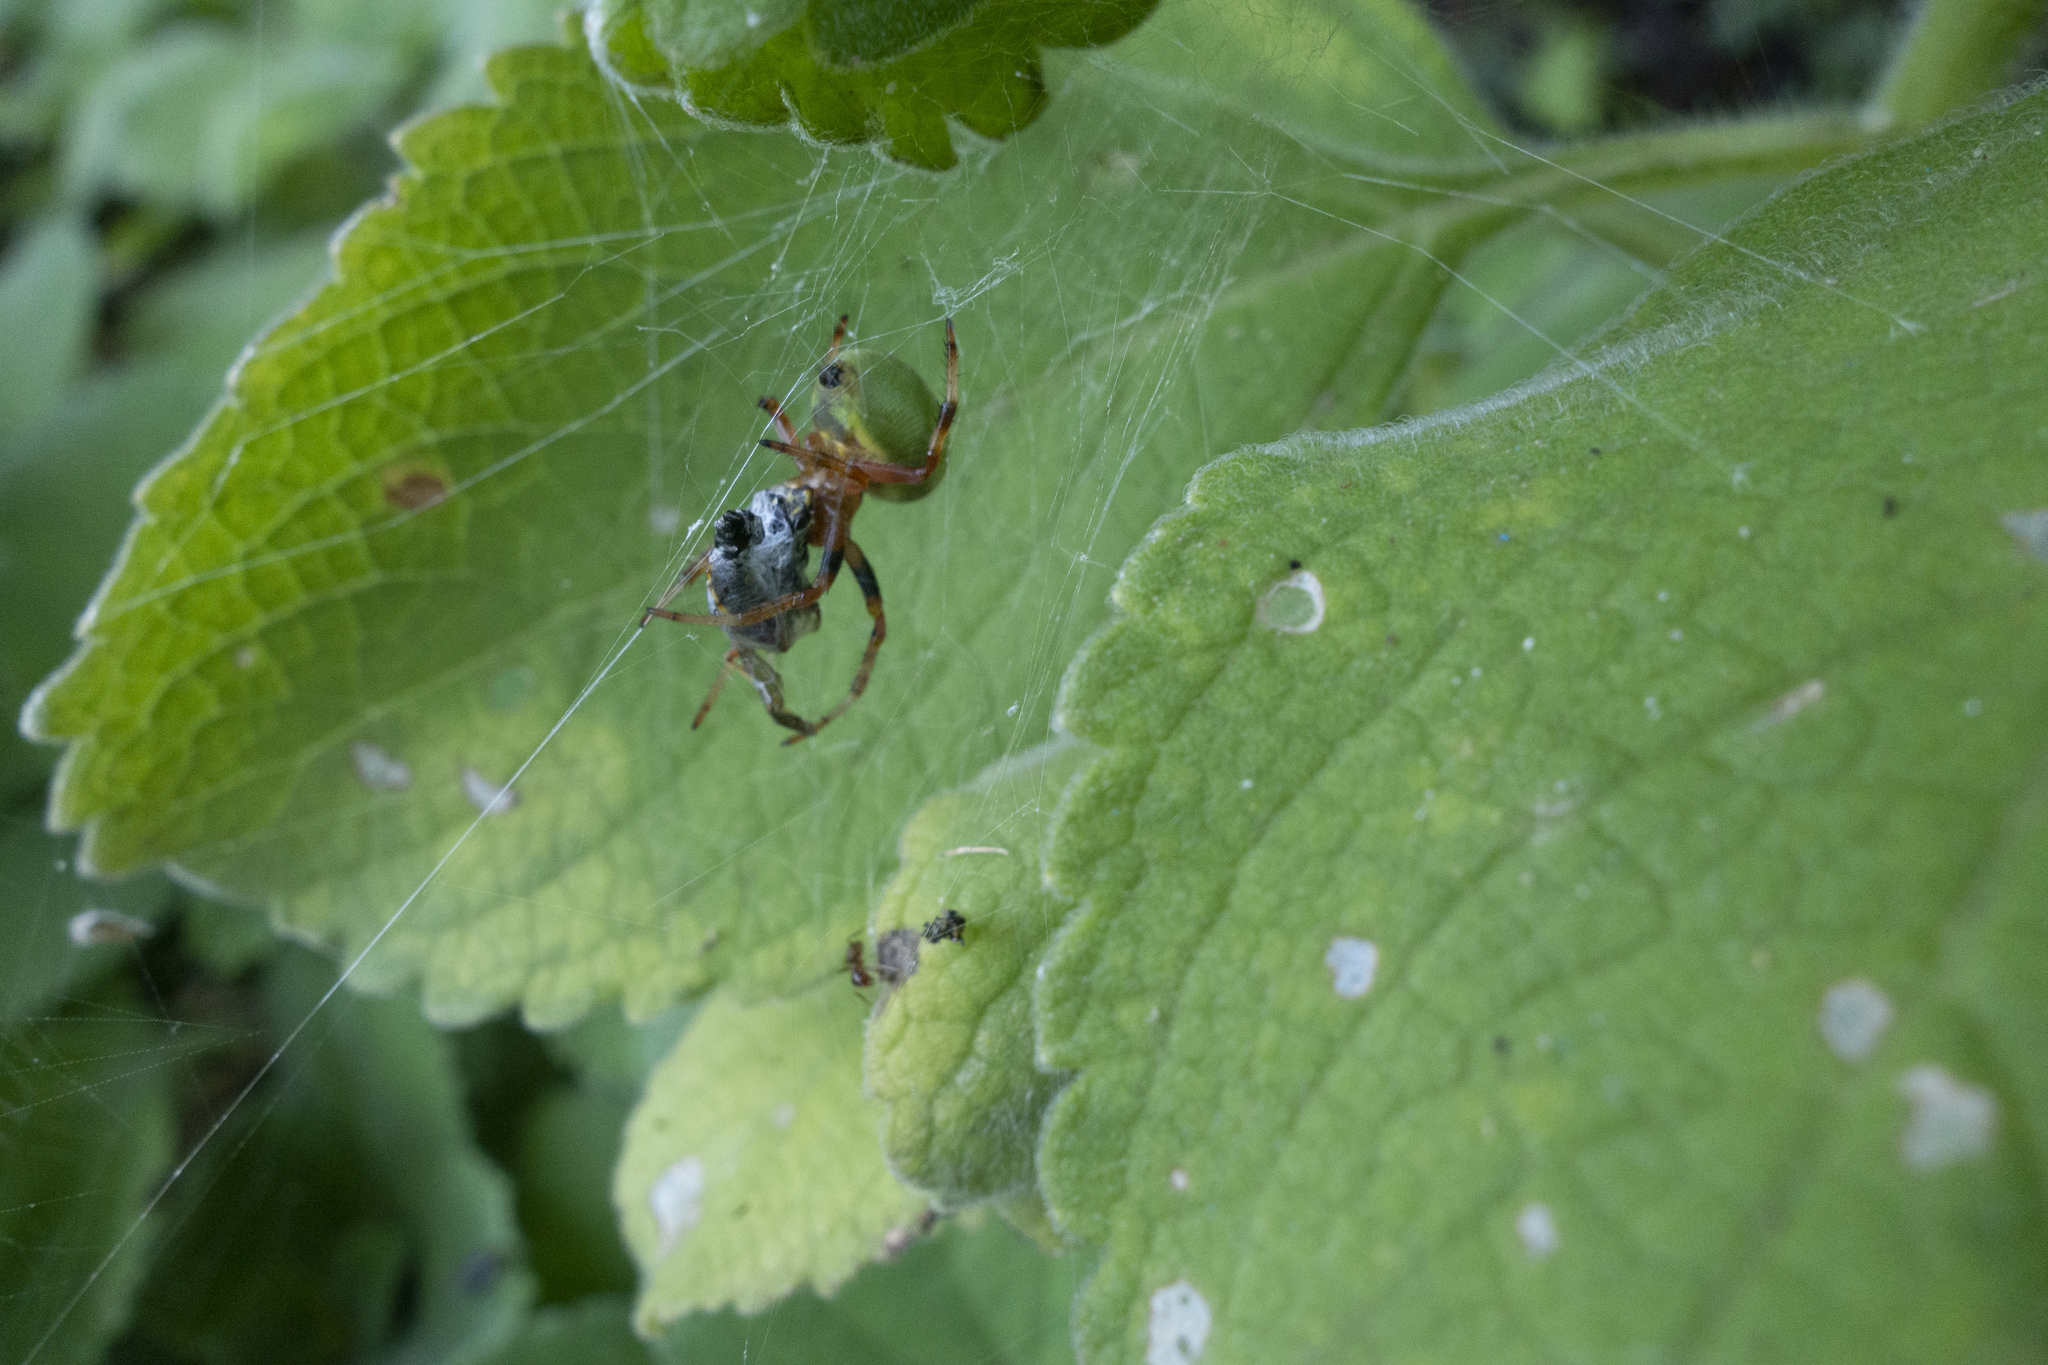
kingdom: Animalia
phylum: Arthropoda
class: Arachnida
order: Araneae
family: Araneidae
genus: Araneus
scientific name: Araneus lathyrinus
